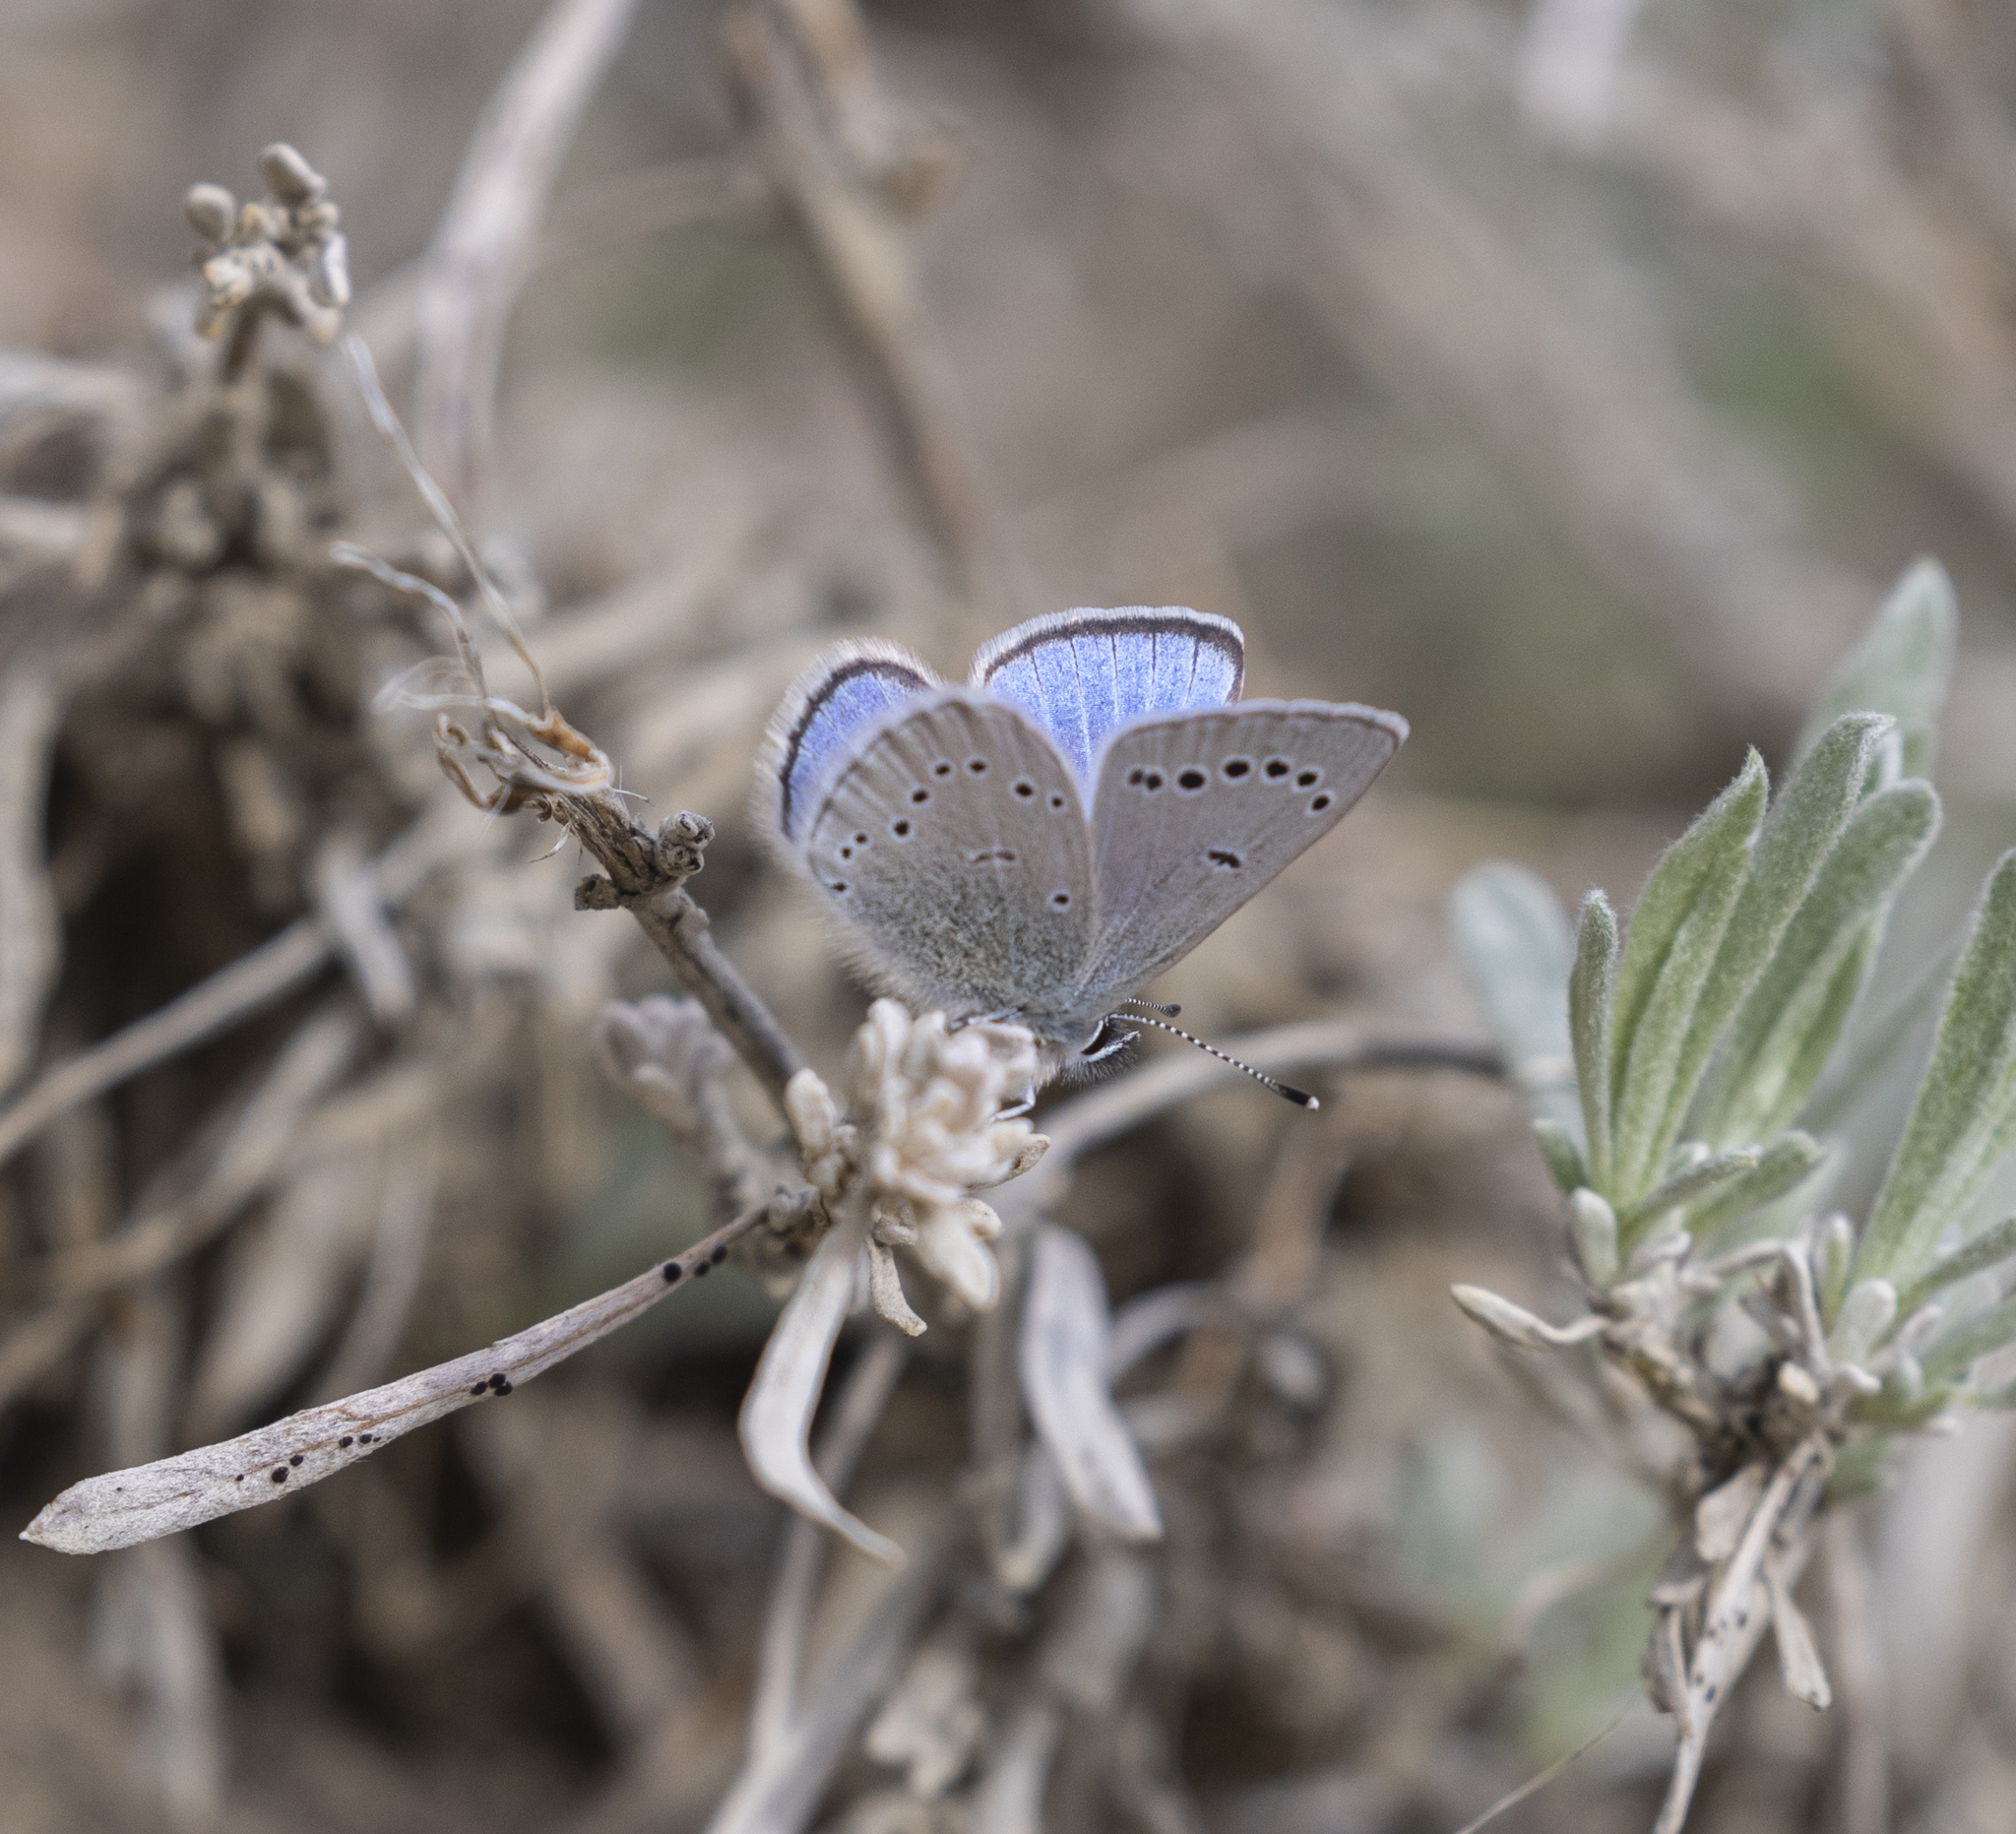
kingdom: Animalia
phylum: Arthropoda
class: Insecta
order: Lepidoptera
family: Lycaenidae
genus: Glaucopsyche
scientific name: Glaucopsyche lygdamus
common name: Silvery blue
